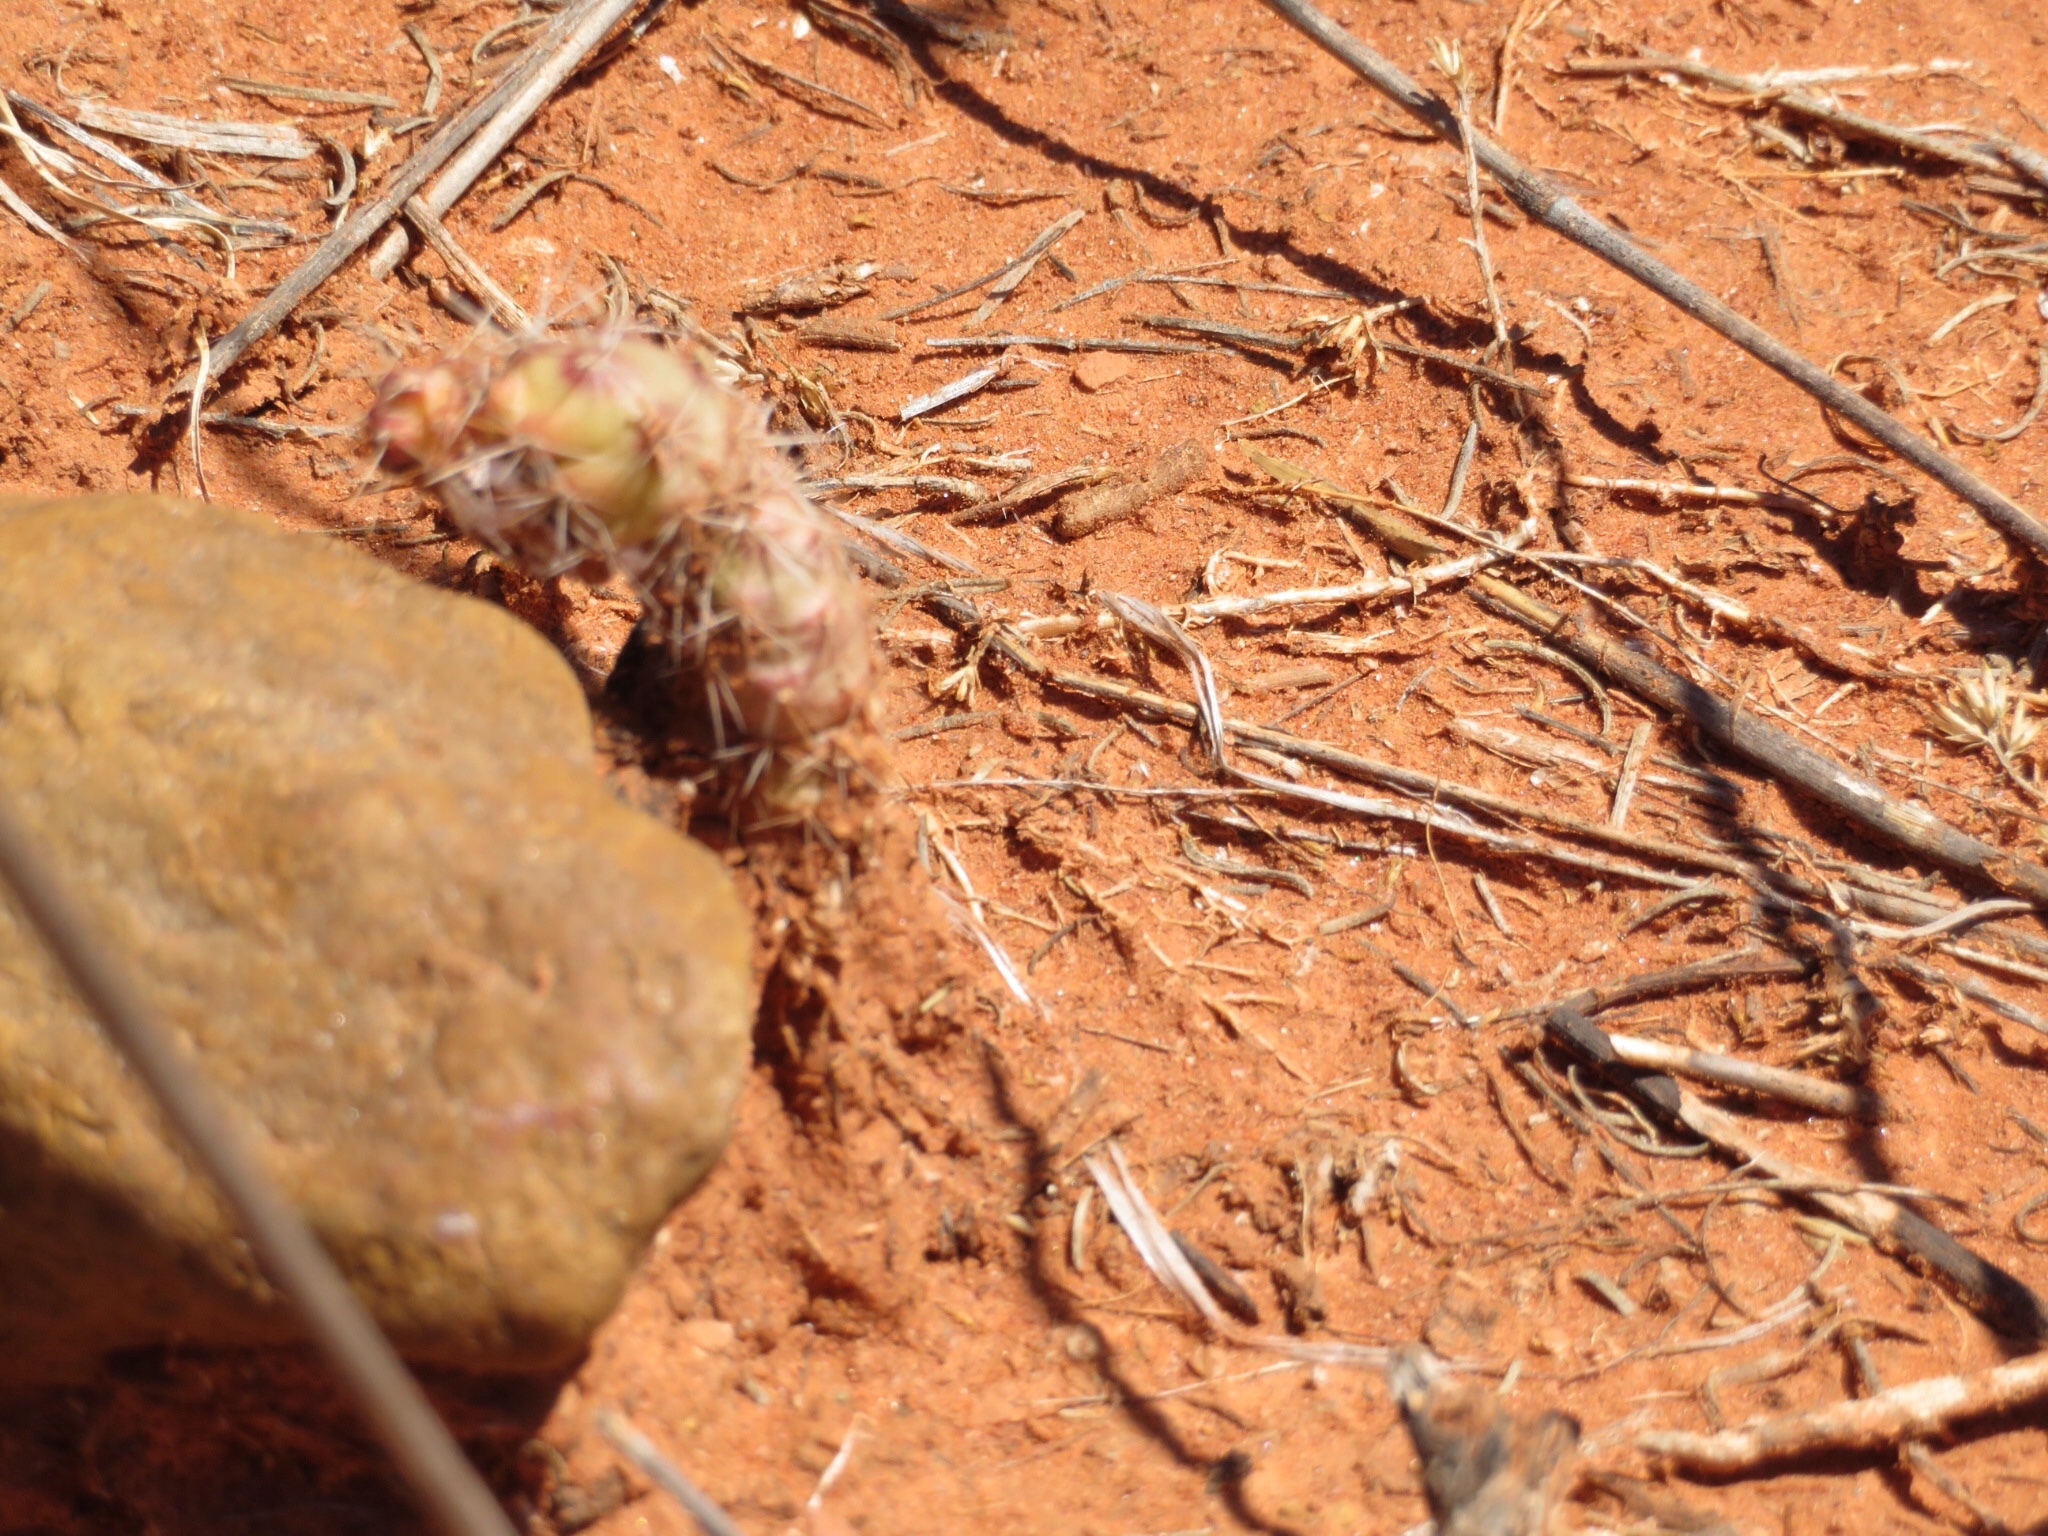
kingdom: Plantae
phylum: Tracheophyta
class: Magnoliopsida
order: Caryophyllales
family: Cactaceae
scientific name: Cactaceae
